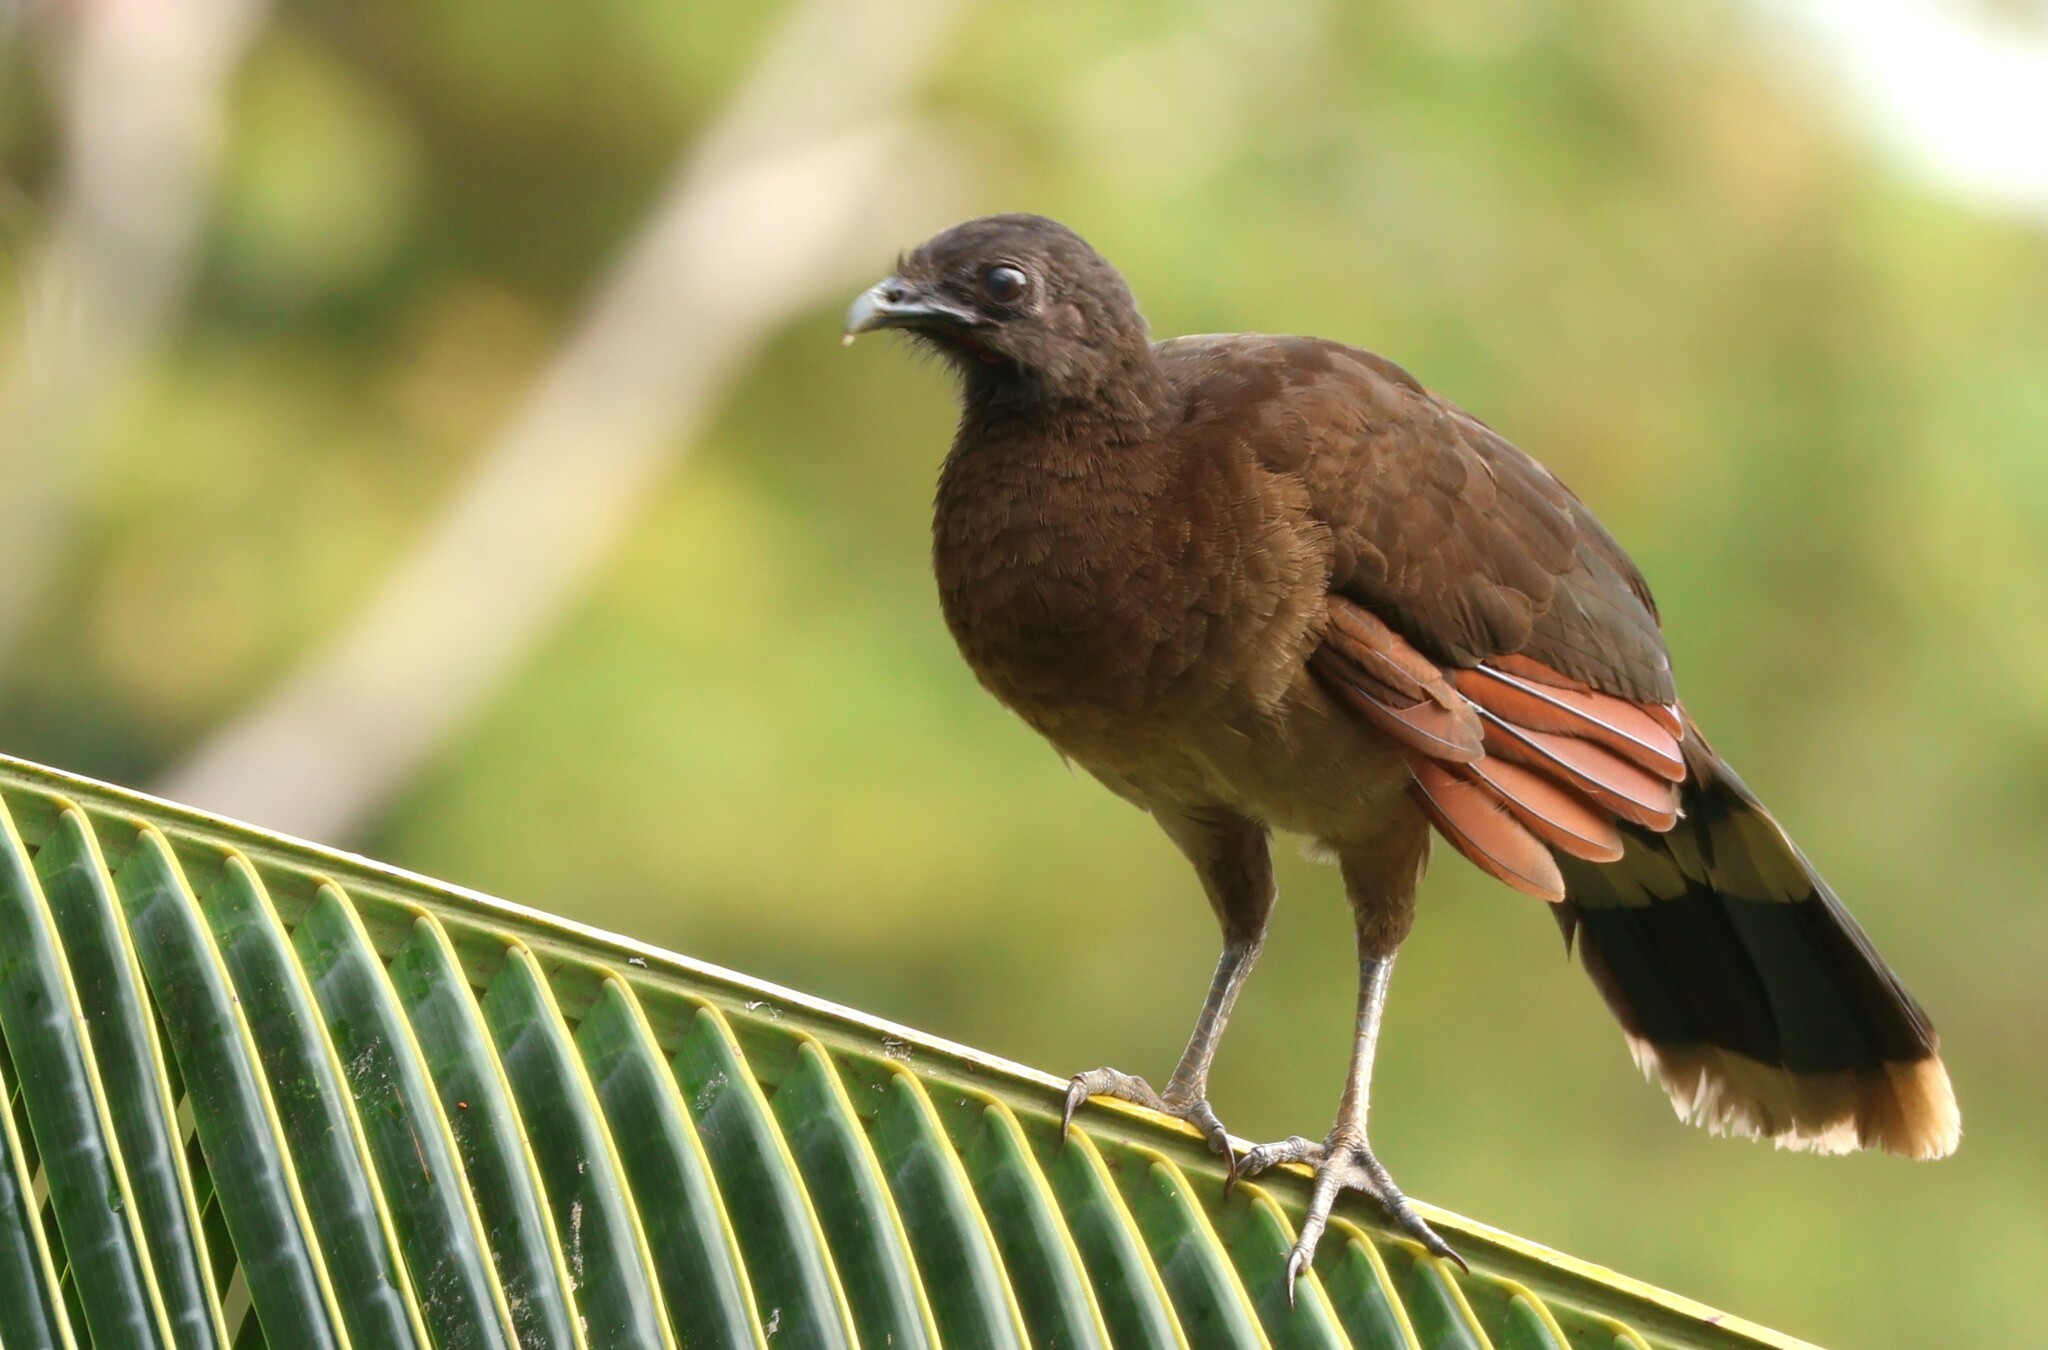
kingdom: Animalia
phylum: Chordata
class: Aves
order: Galliformes
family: Cracidae
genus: Ortalis
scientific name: Ortalis cinereiceps
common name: Grey-headed chachalaca
